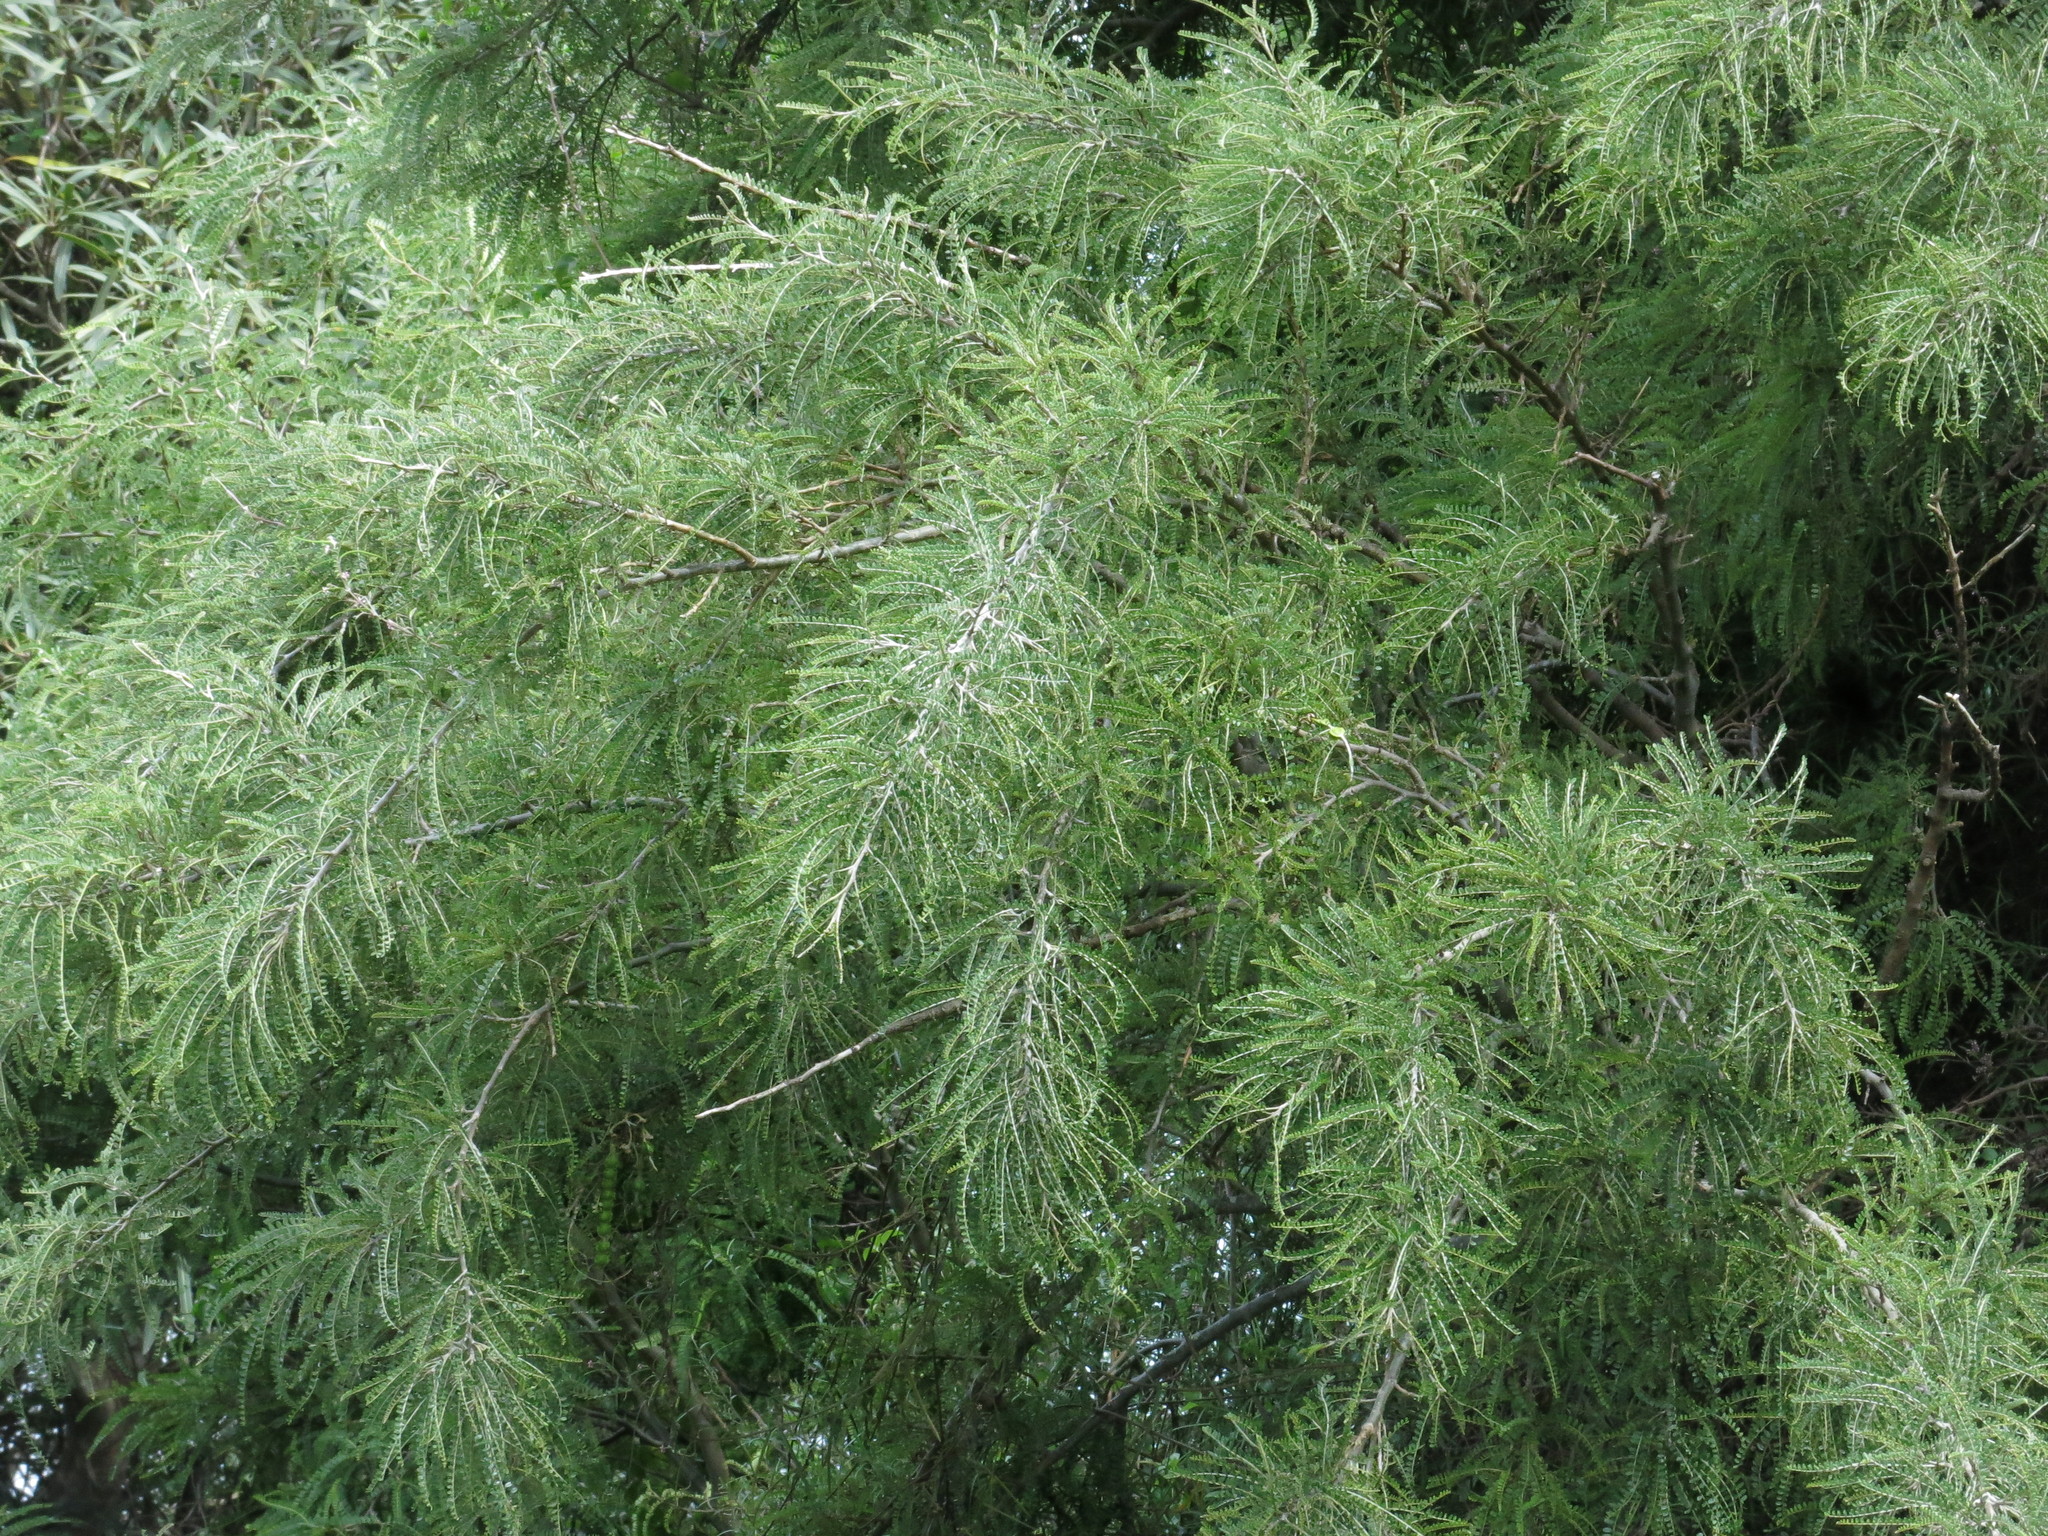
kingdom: Plantae
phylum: Tracheophyta
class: Magnoliopsida
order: Fabales
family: Fabaceae
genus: Sophora
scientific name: Sophora microphylla
